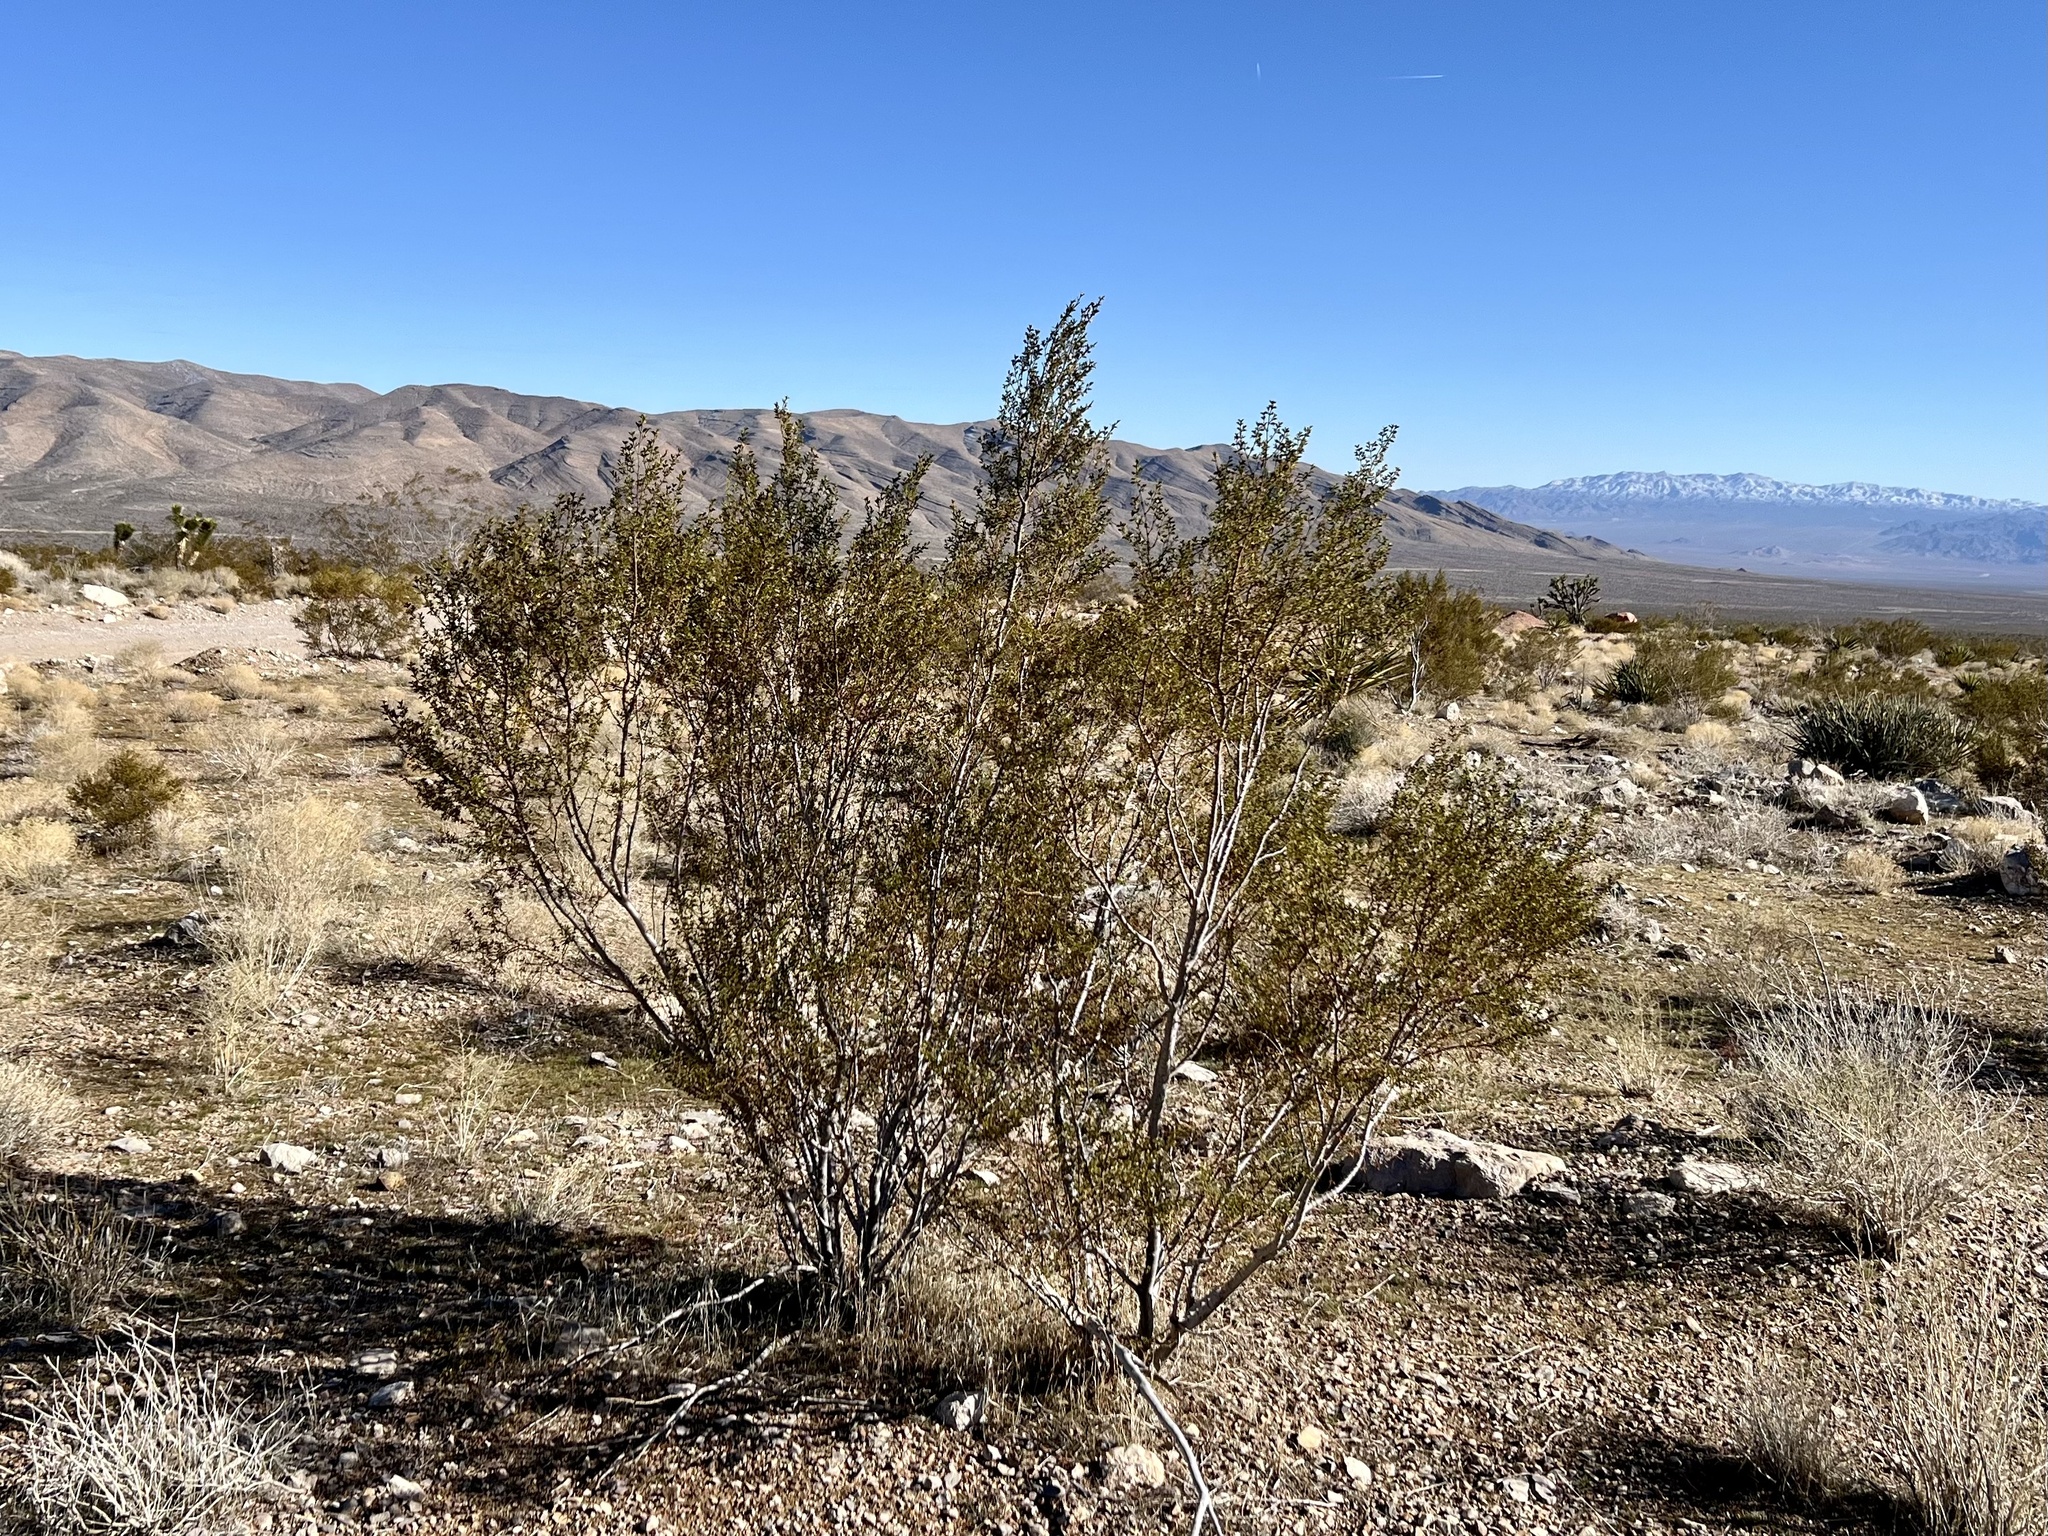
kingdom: Plantae
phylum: Tracheophyta
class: Magnoliopsida
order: Zygophyllales
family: Zygophyllaceae
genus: Larrea
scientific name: Larrea tridentata
